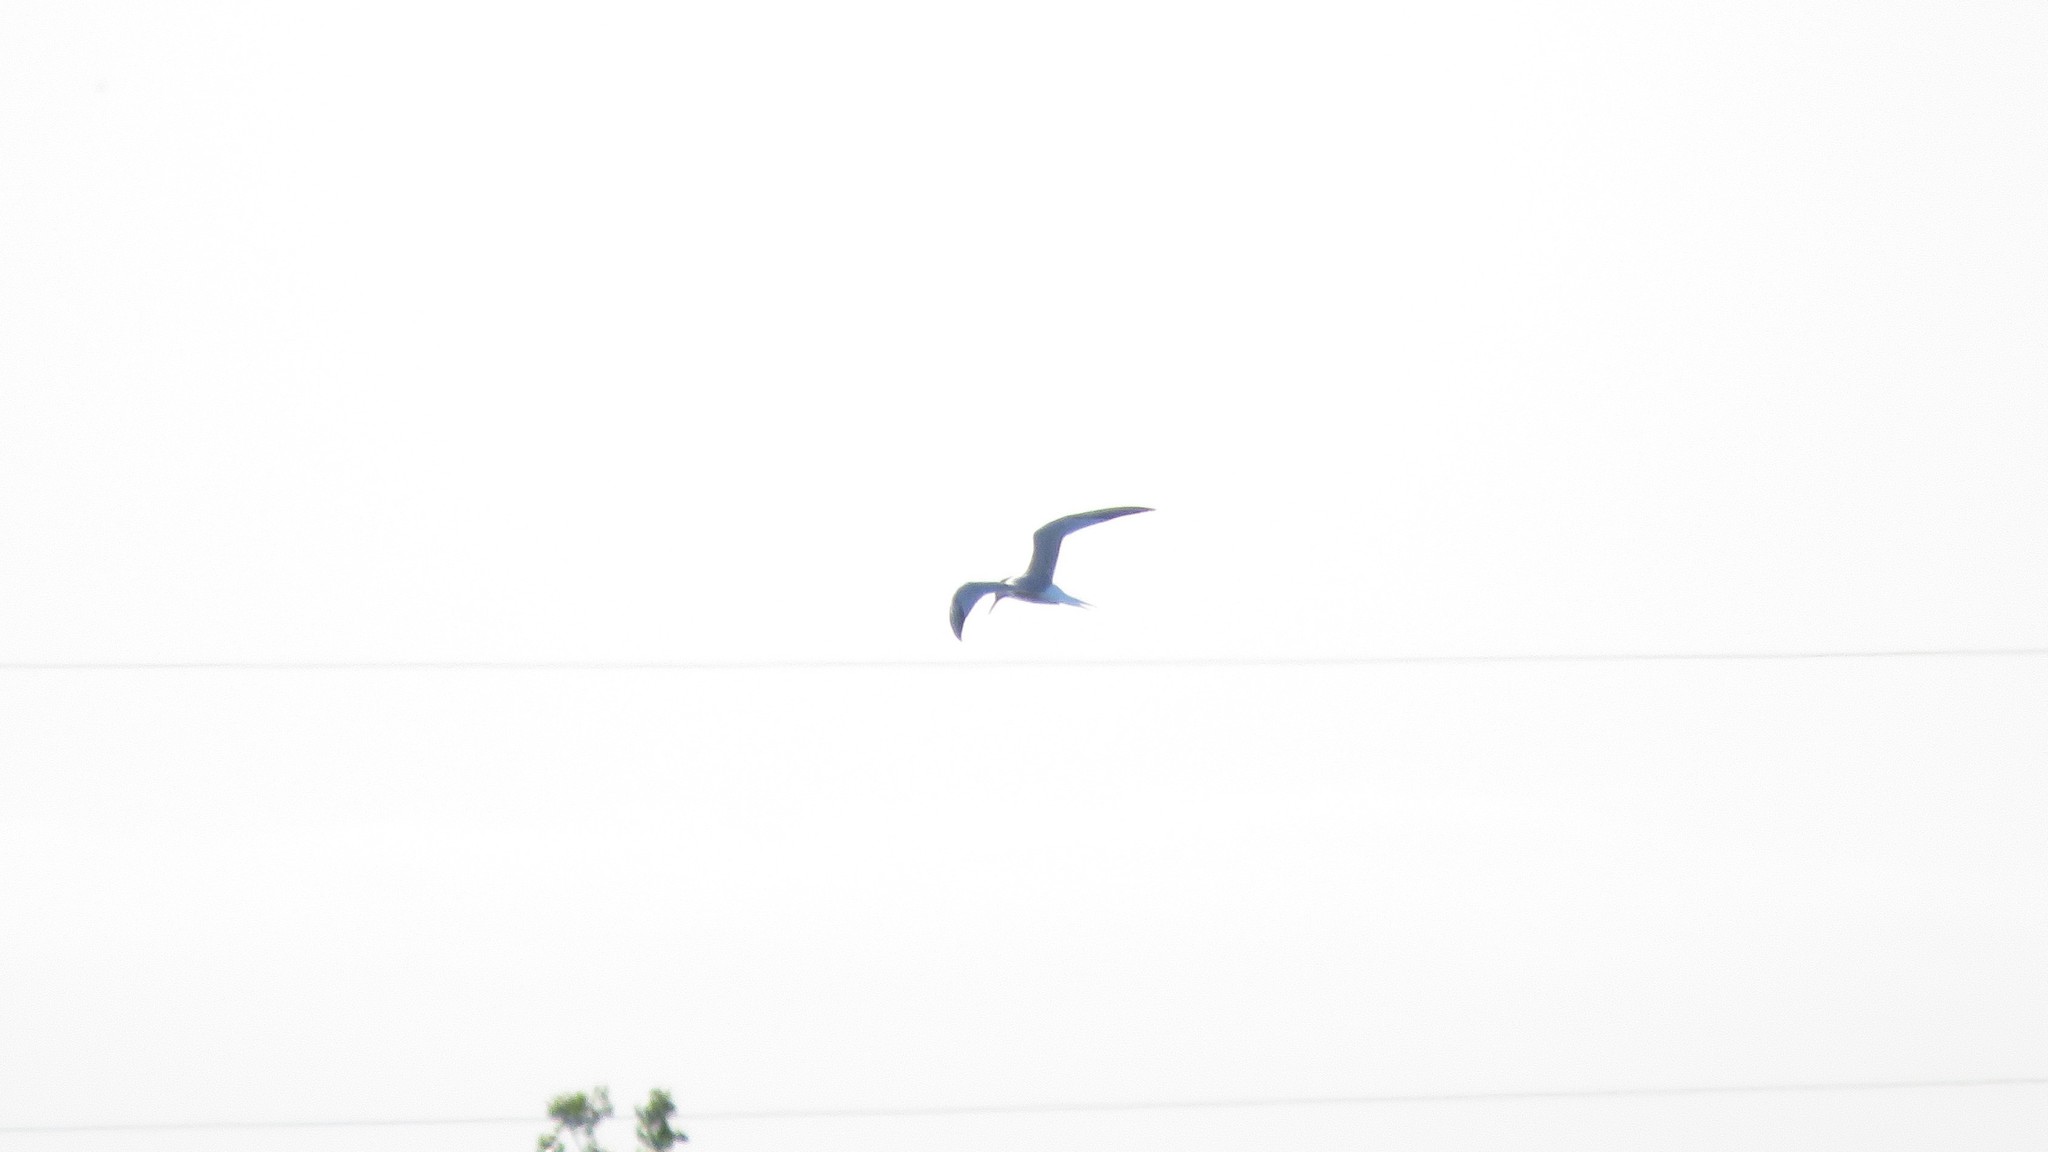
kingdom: Animalia
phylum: Chordata
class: Aves
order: Charadriiformes
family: Laridae
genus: Sterna
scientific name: Sterna hirundo
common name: Common tern
